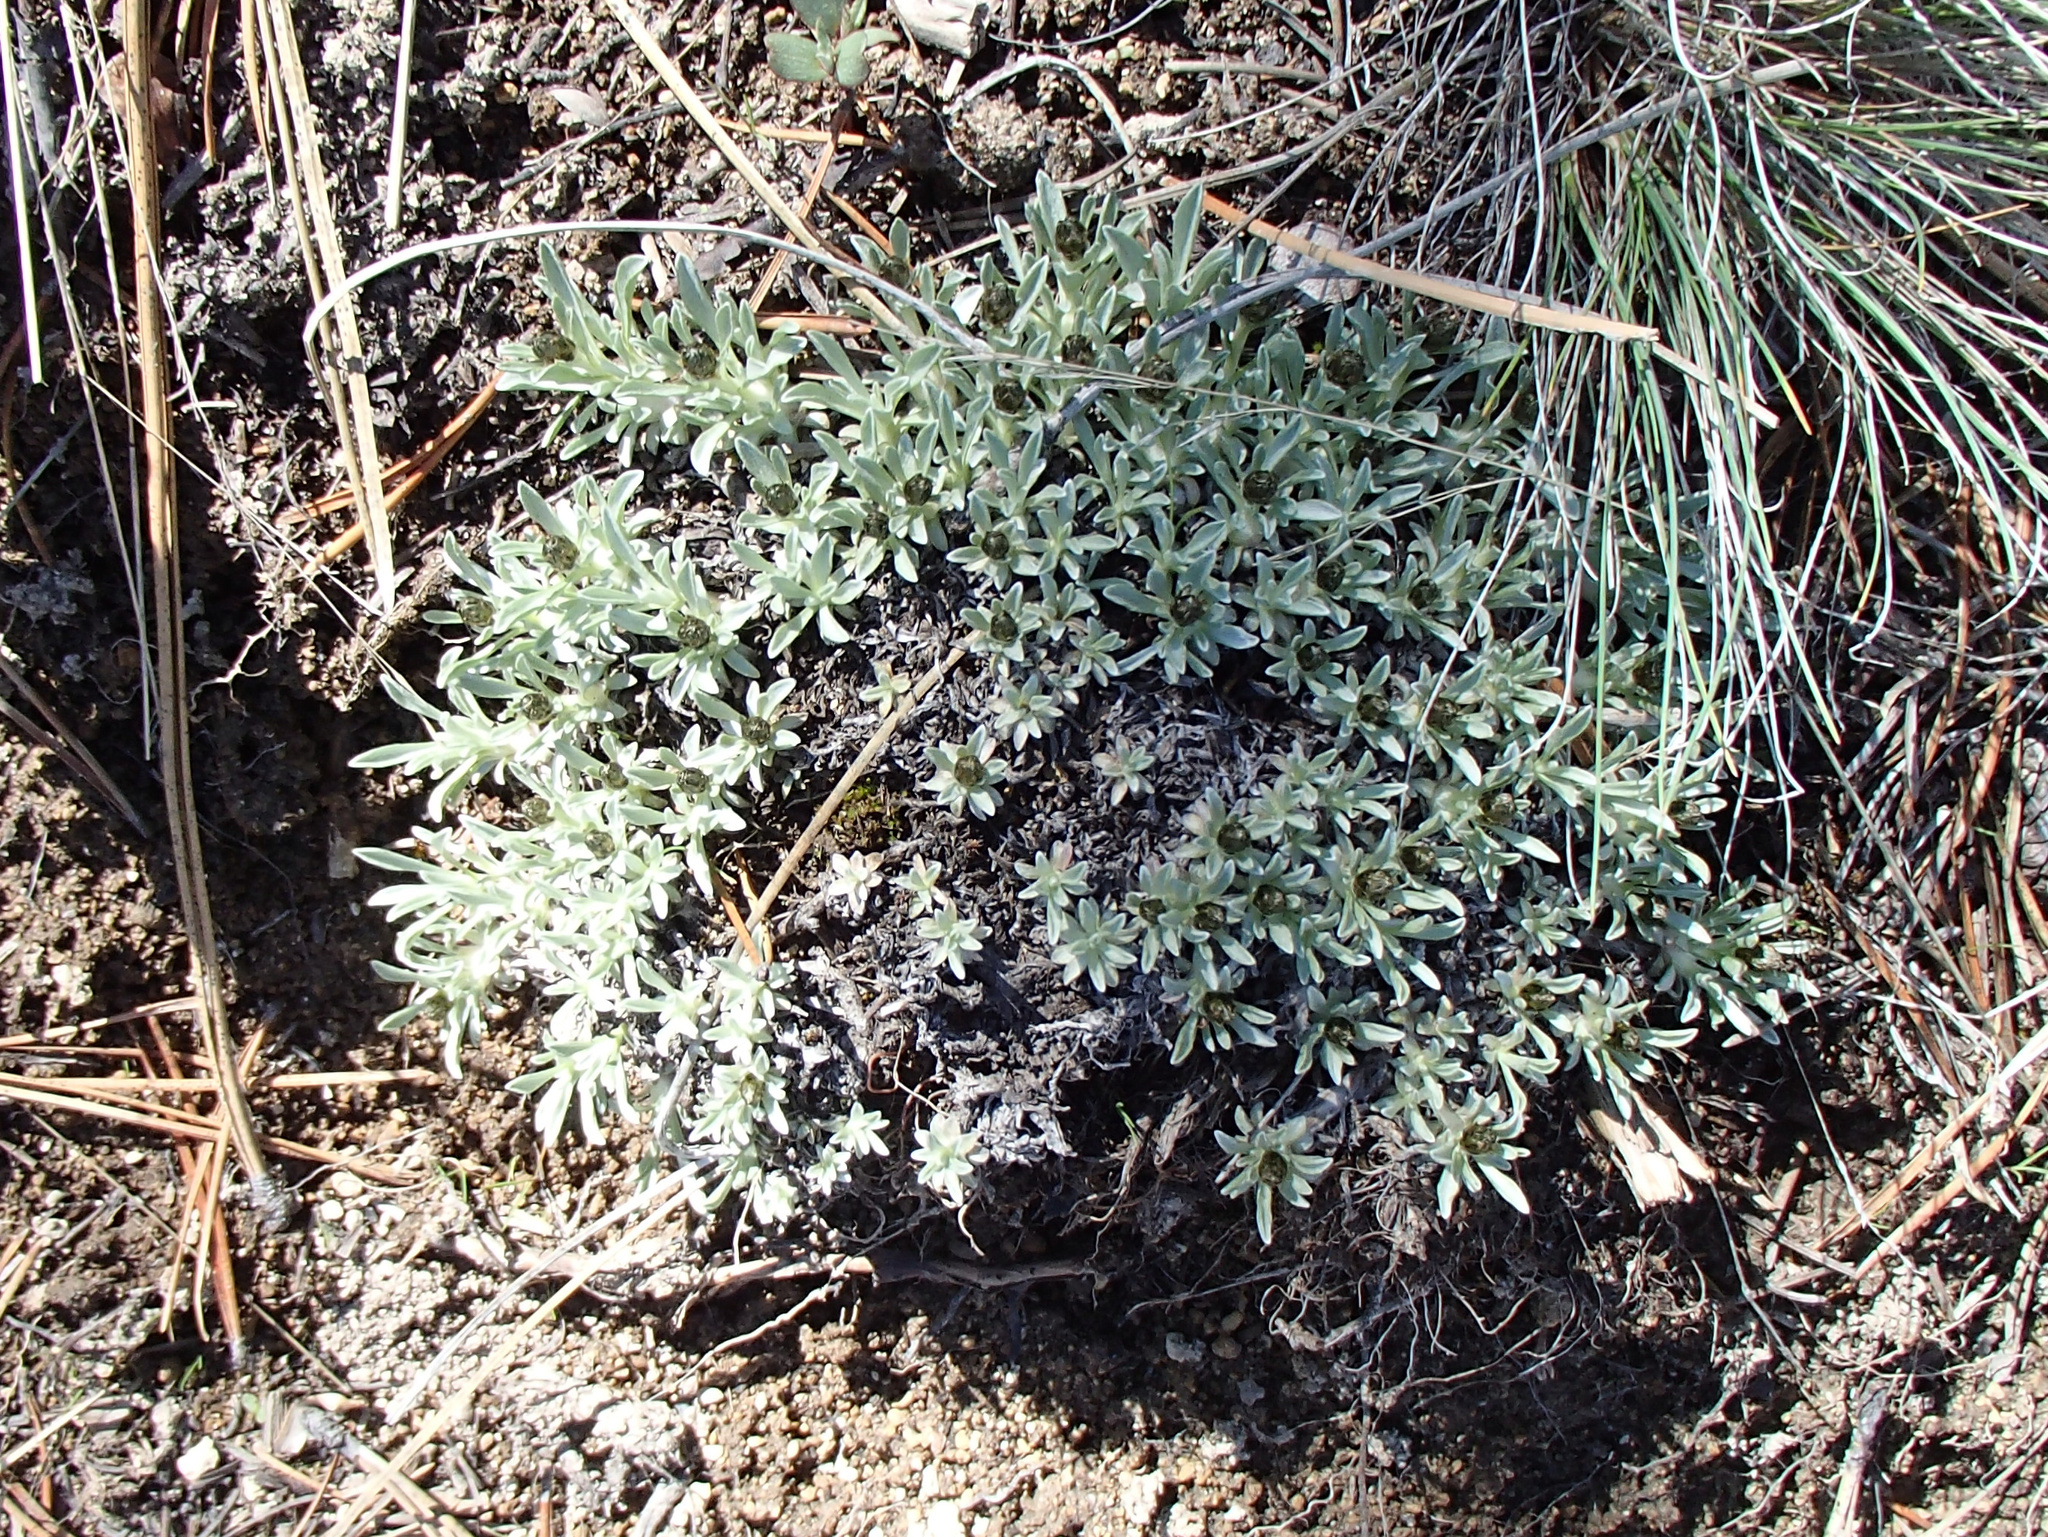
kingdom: Plantae
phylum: Tracheophyta
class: Magnoliopsida
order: Asterales
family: Asteraceae
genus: Antennaria
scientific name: Antennaria dimorpha
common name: Cushion pussytoes
